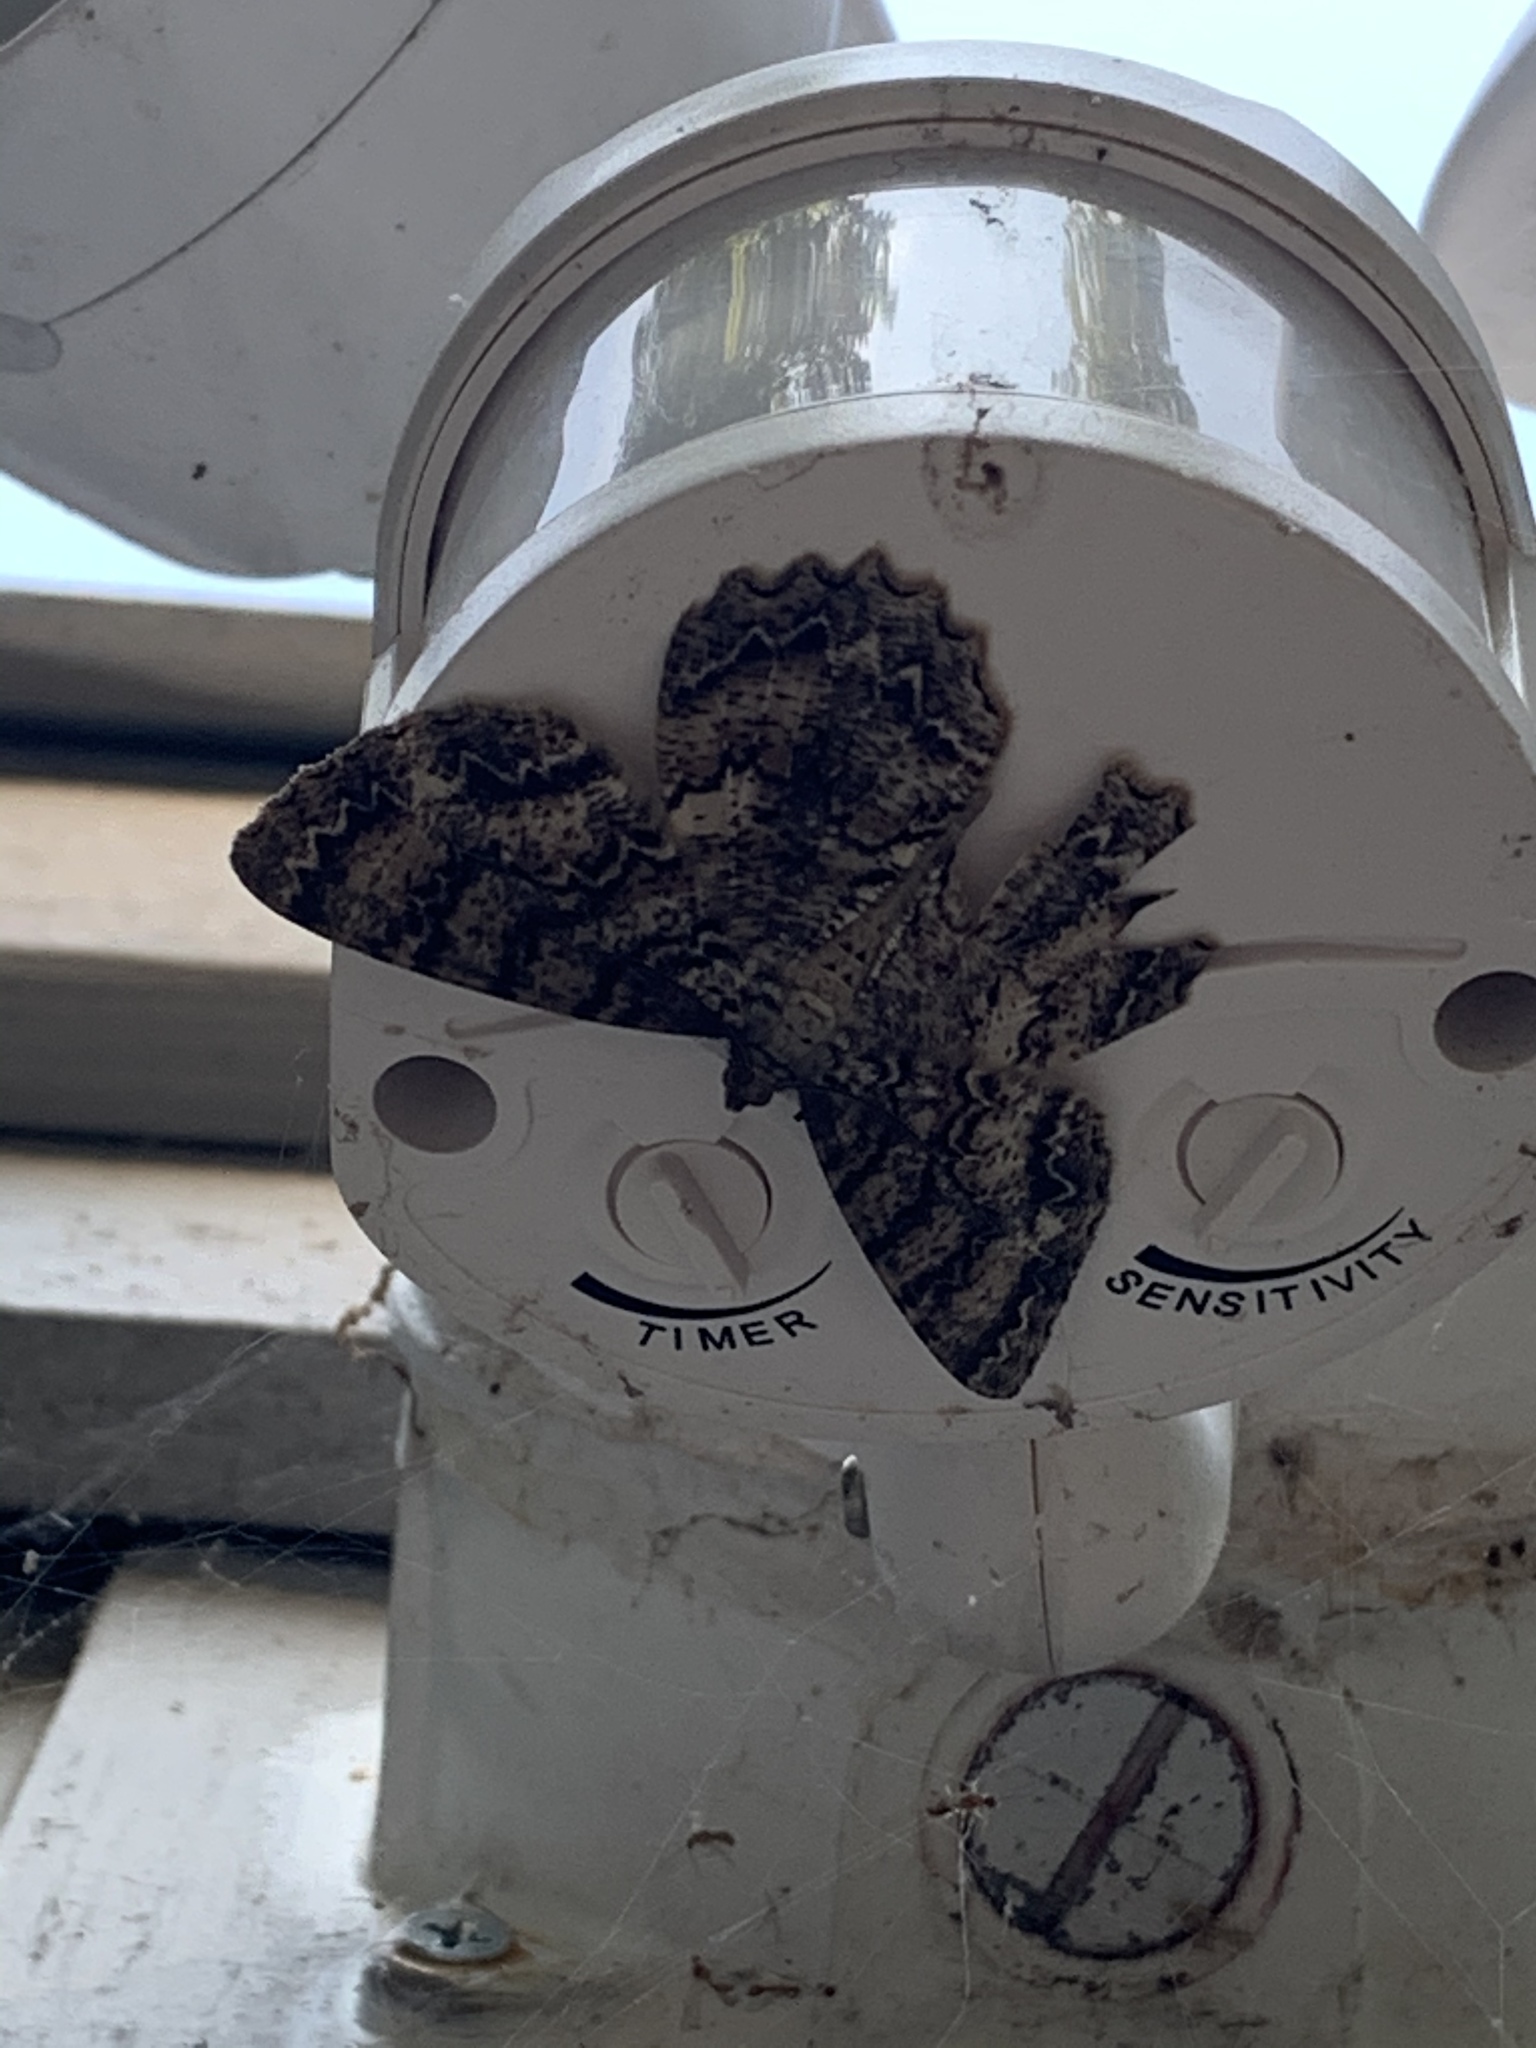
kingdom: Animalia
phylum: Arthropoda
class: Insecta
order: Lepidoptera
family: Geometridae
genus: Epimecis
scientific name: Epimecis hortaria
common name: Tulip-tree beauty
